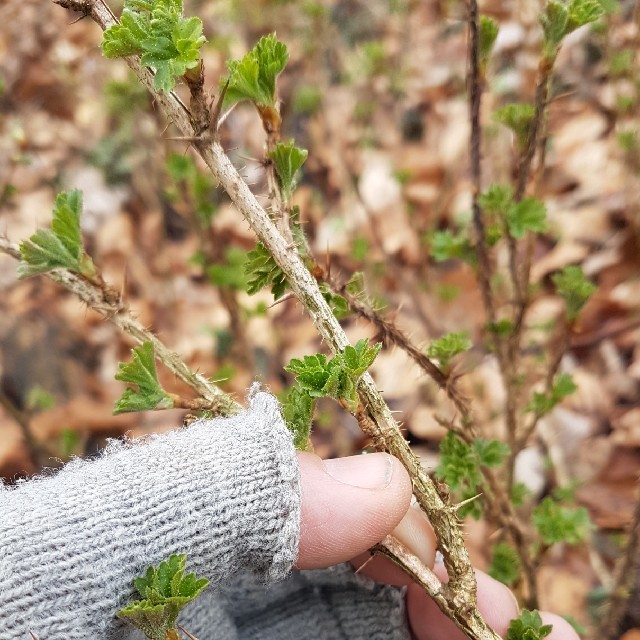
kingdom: Plantae
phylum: Tracheophyta
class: Magnoliopsida
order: Saxifragales
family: Grossulariaceae
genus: Ribes
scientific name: Ribes uva-crispa
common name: Gooseberry
